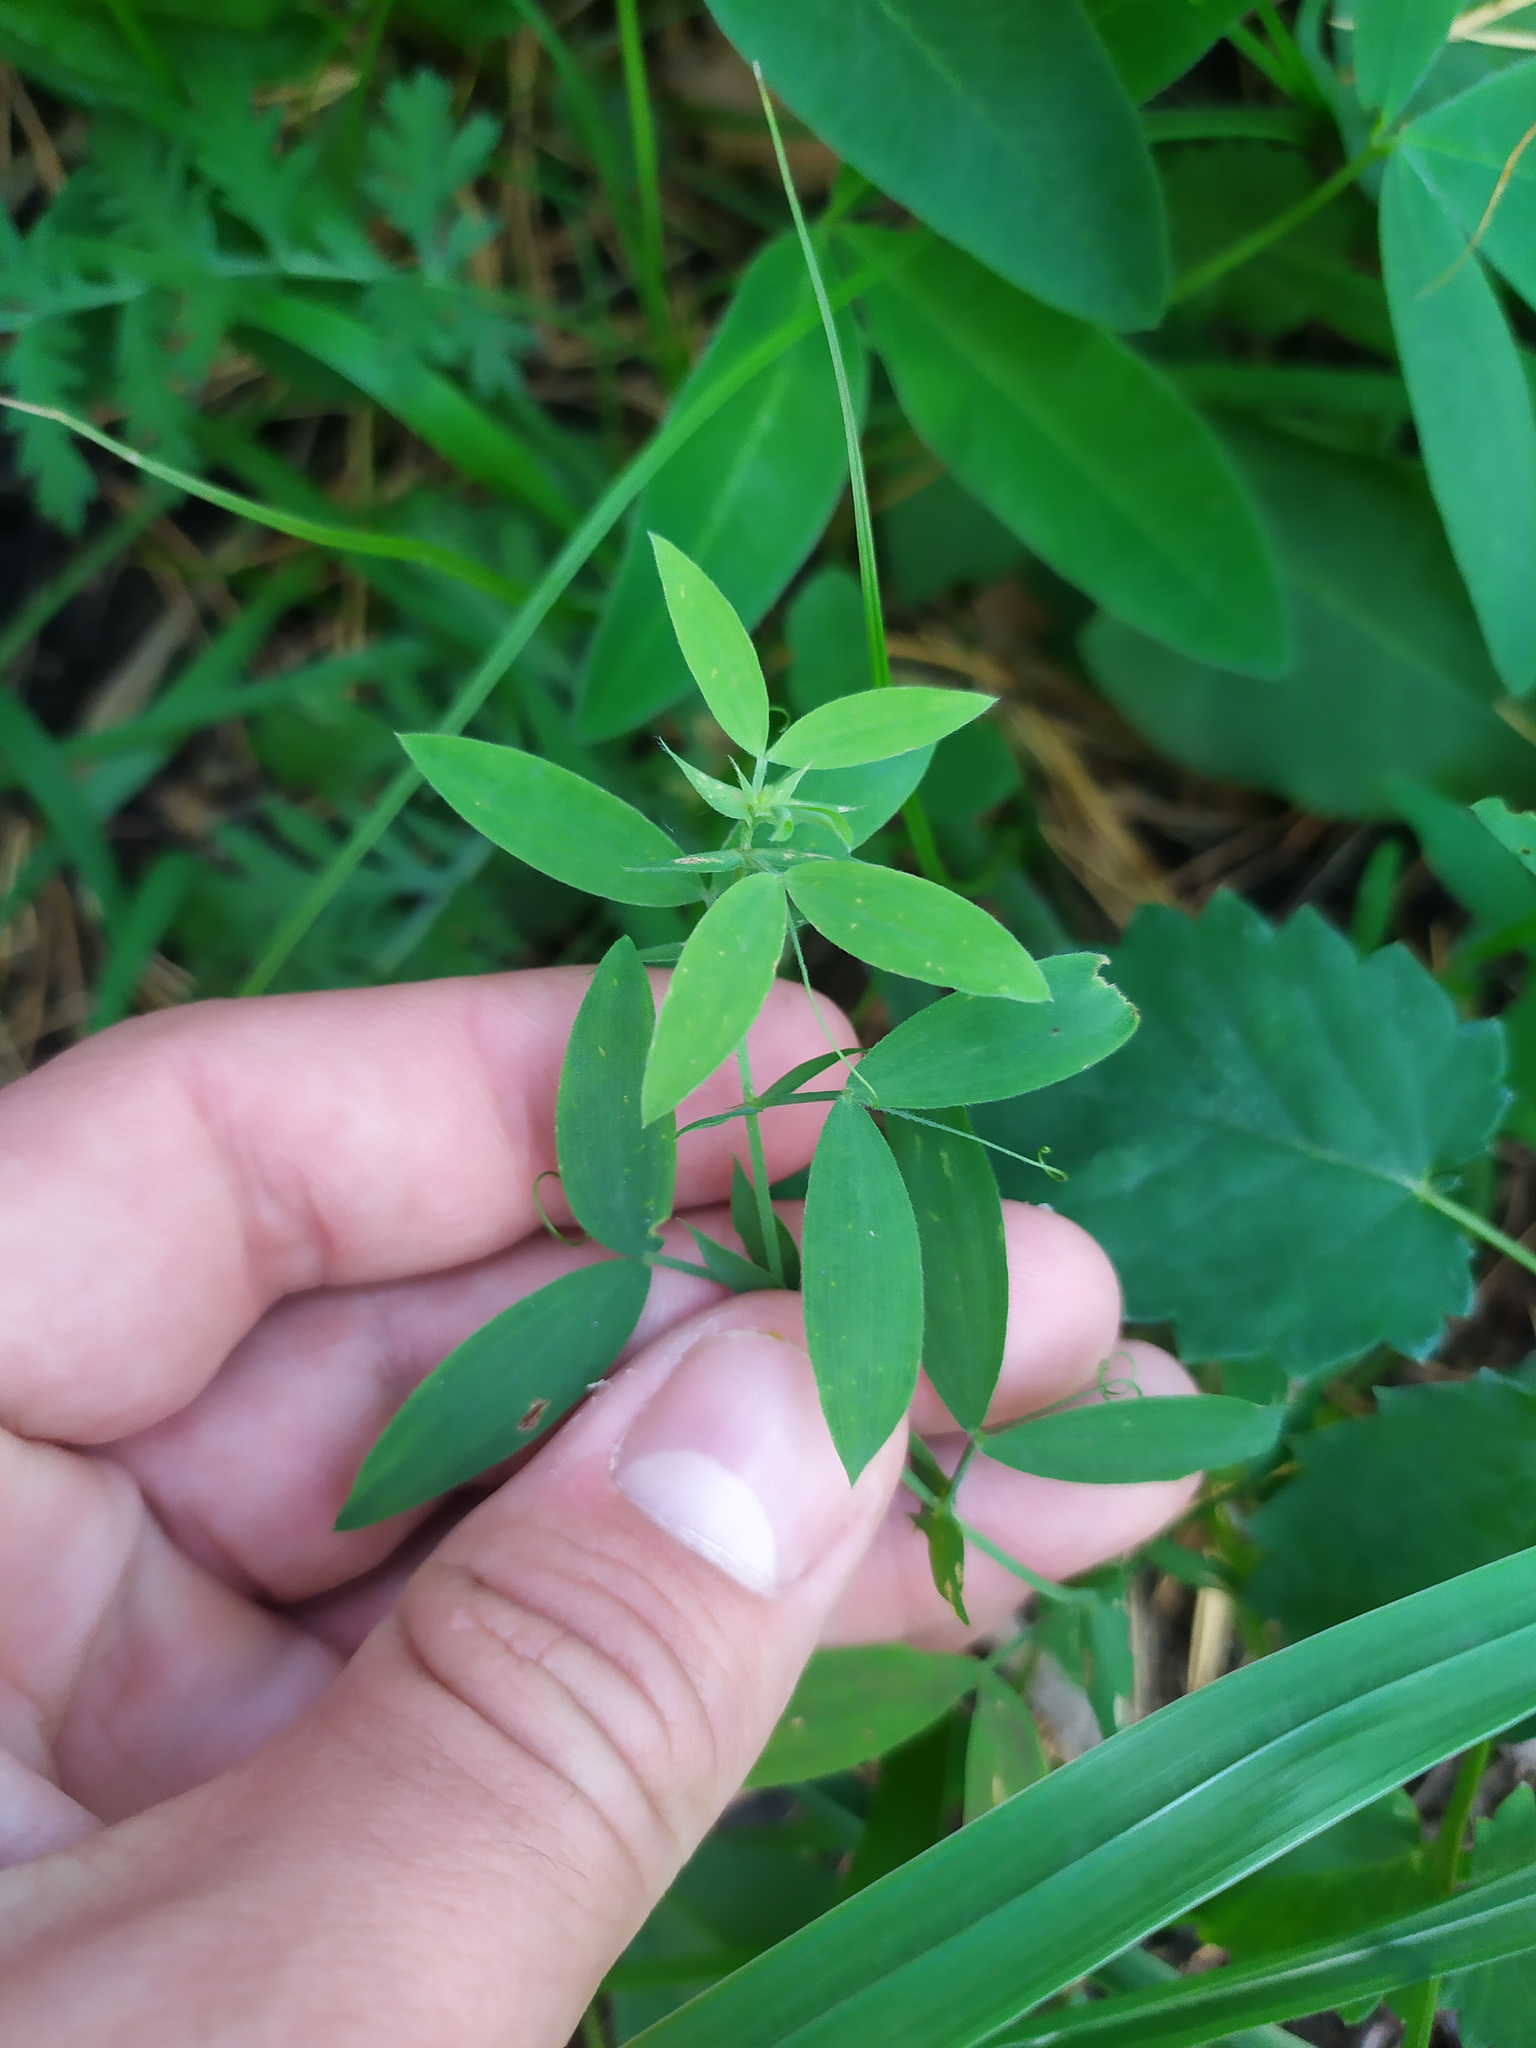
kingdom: Plantae
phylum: Tracheophyta
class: Magnoliopsida
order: Fabales
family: Fabaceae
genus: Lathyrus
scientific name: Lathyrus pratensis
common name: Meadow vetchling
